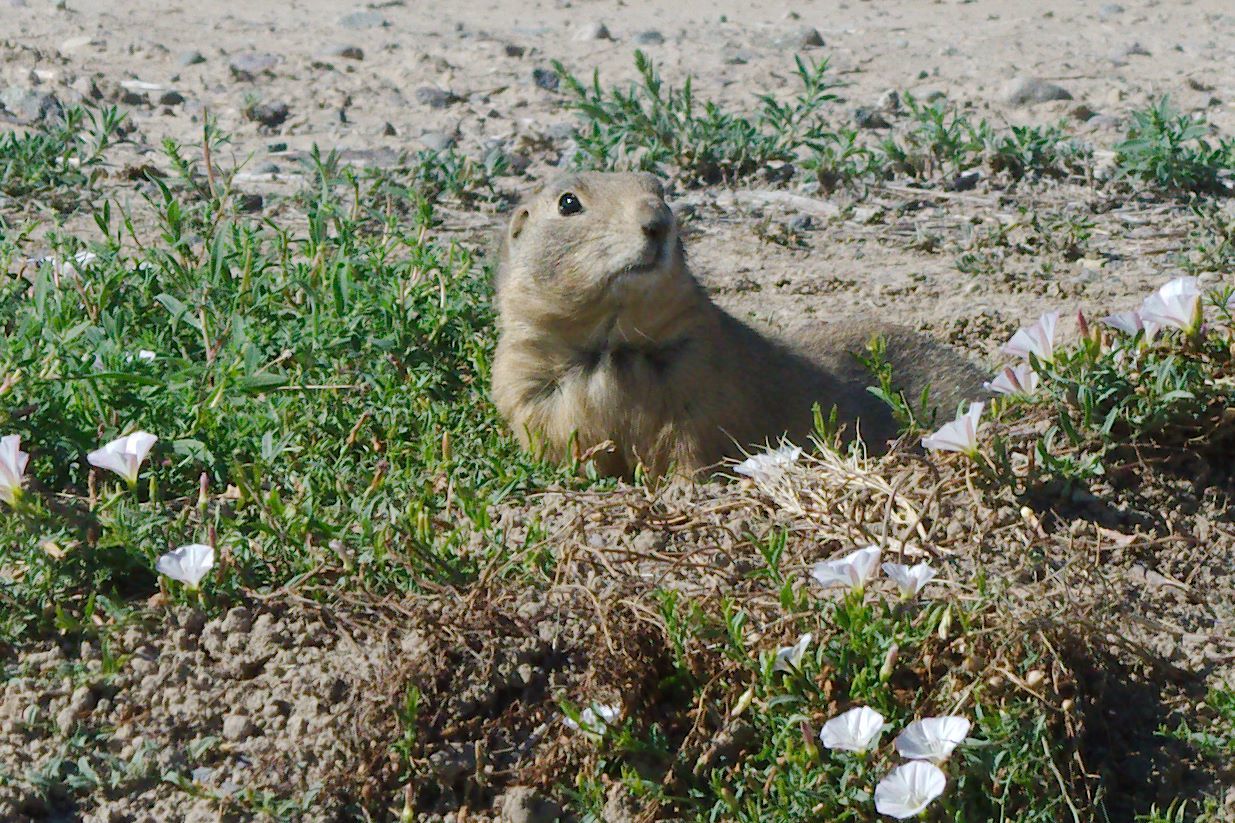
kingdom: Animalia
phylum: Chordata
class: Mammalia
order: Rodentia
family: Sciuridae
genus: Cynomys
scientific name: Cynomys leucurus
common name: White-tailed prairie dog
